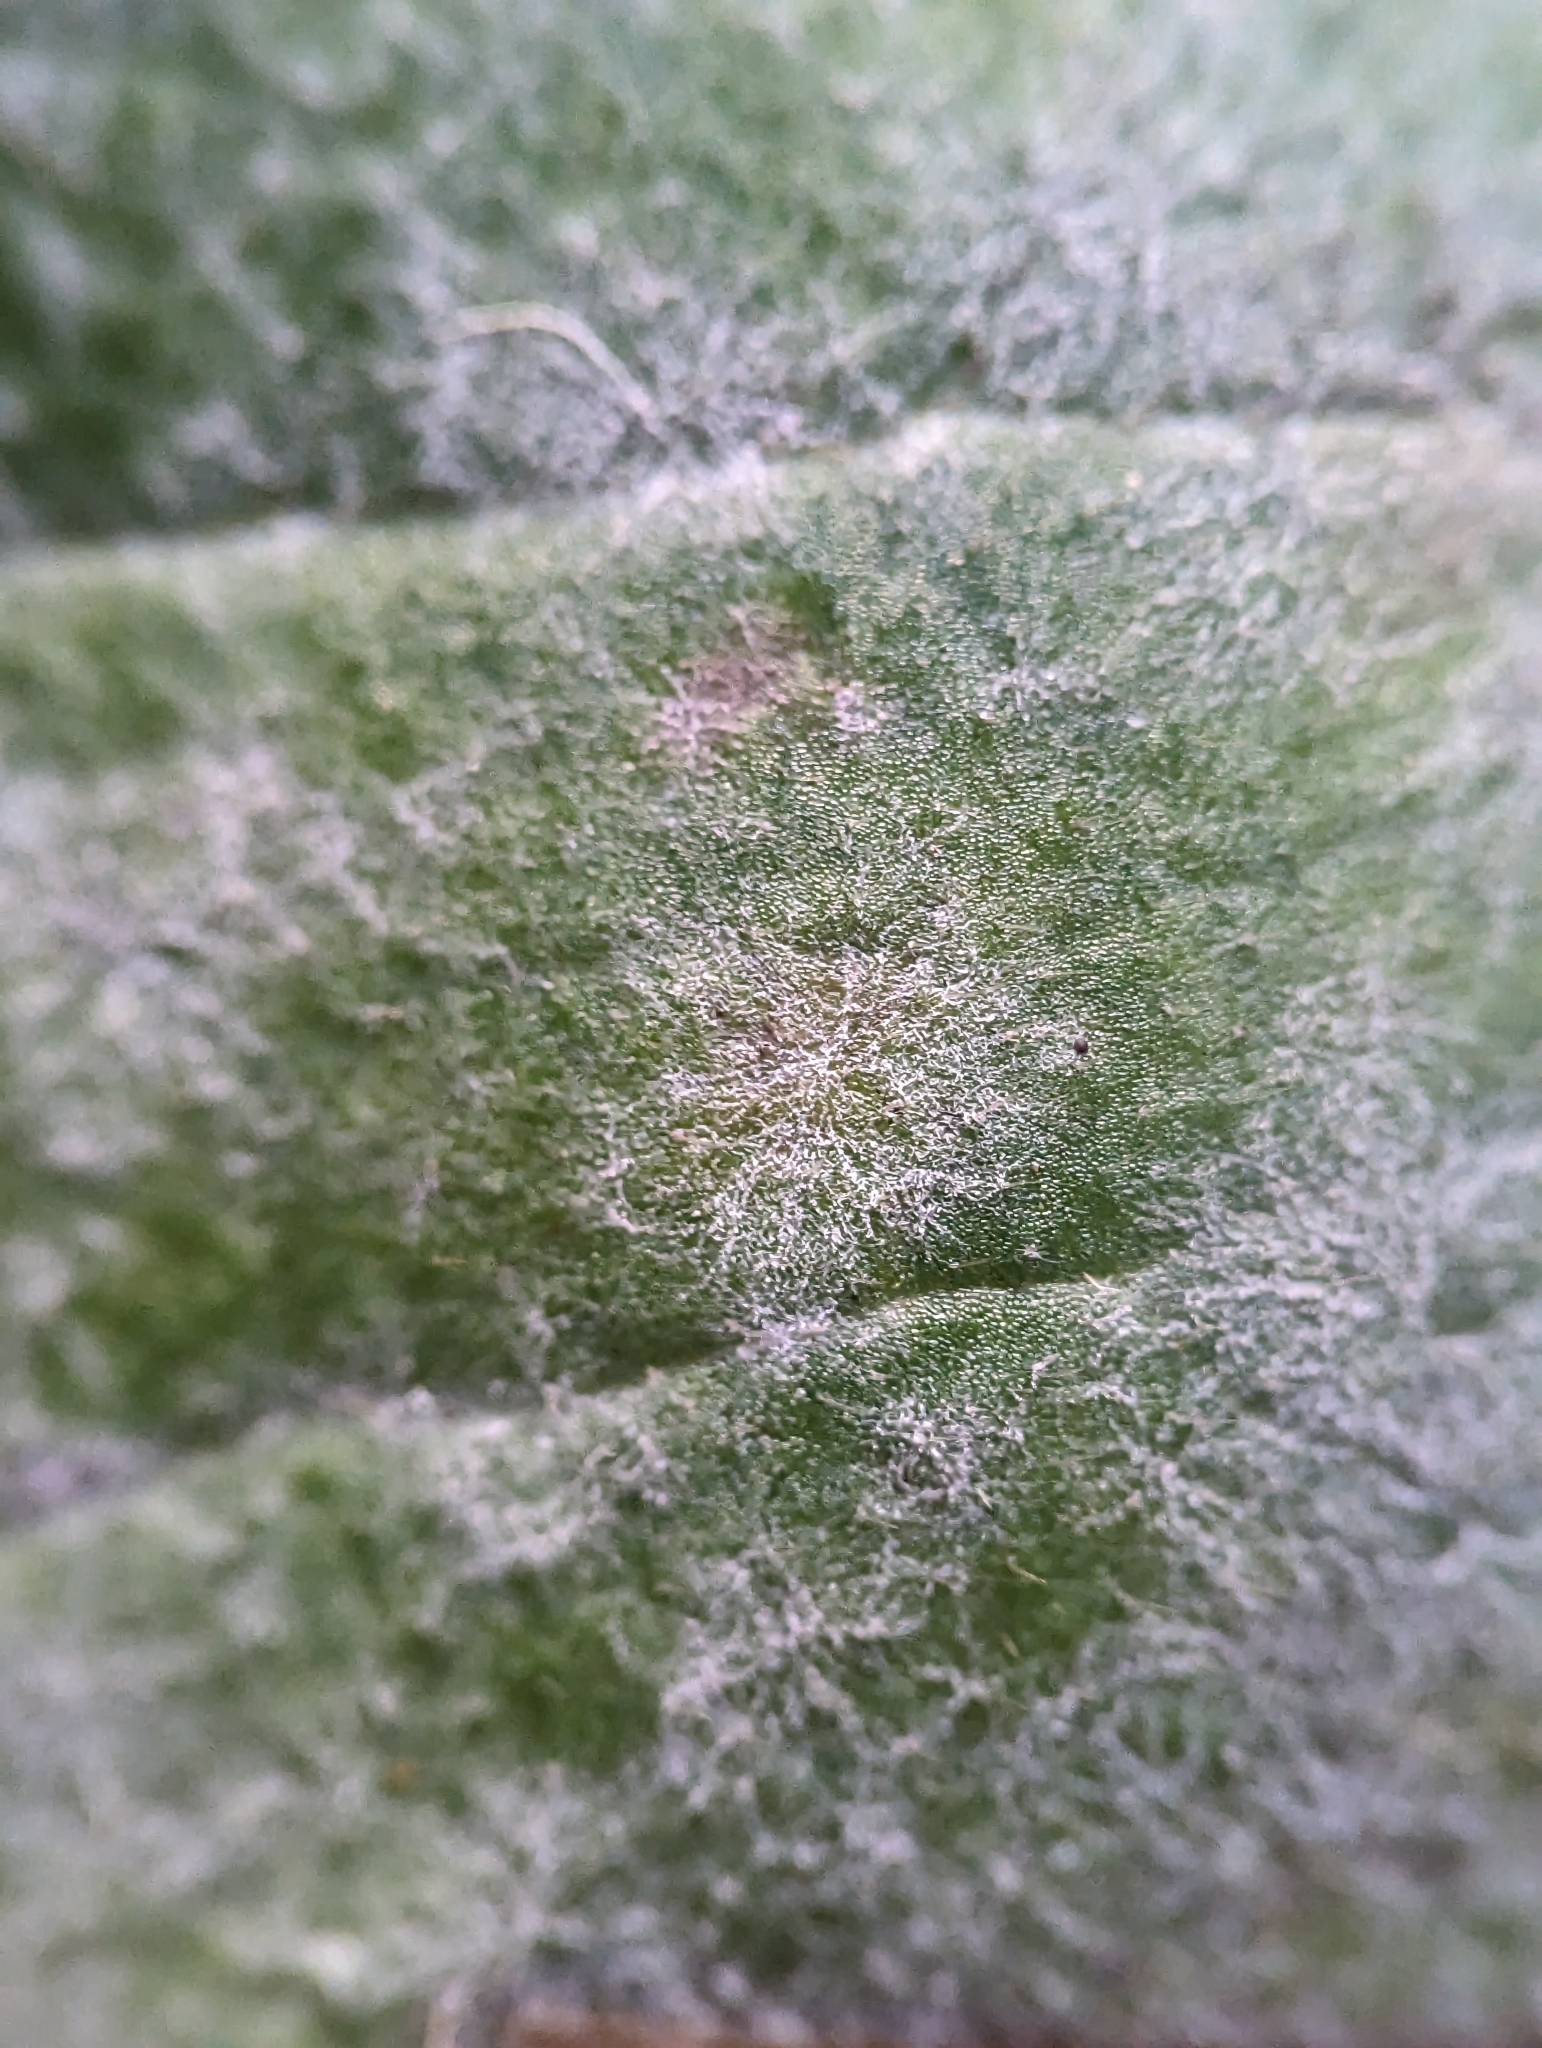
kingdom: Fungi
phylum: Ascomycota
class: Leotiomycetes
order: Helotiales
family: Erysiphaceae
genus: Erysiphe
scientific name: Erysiphe aquilegiae
